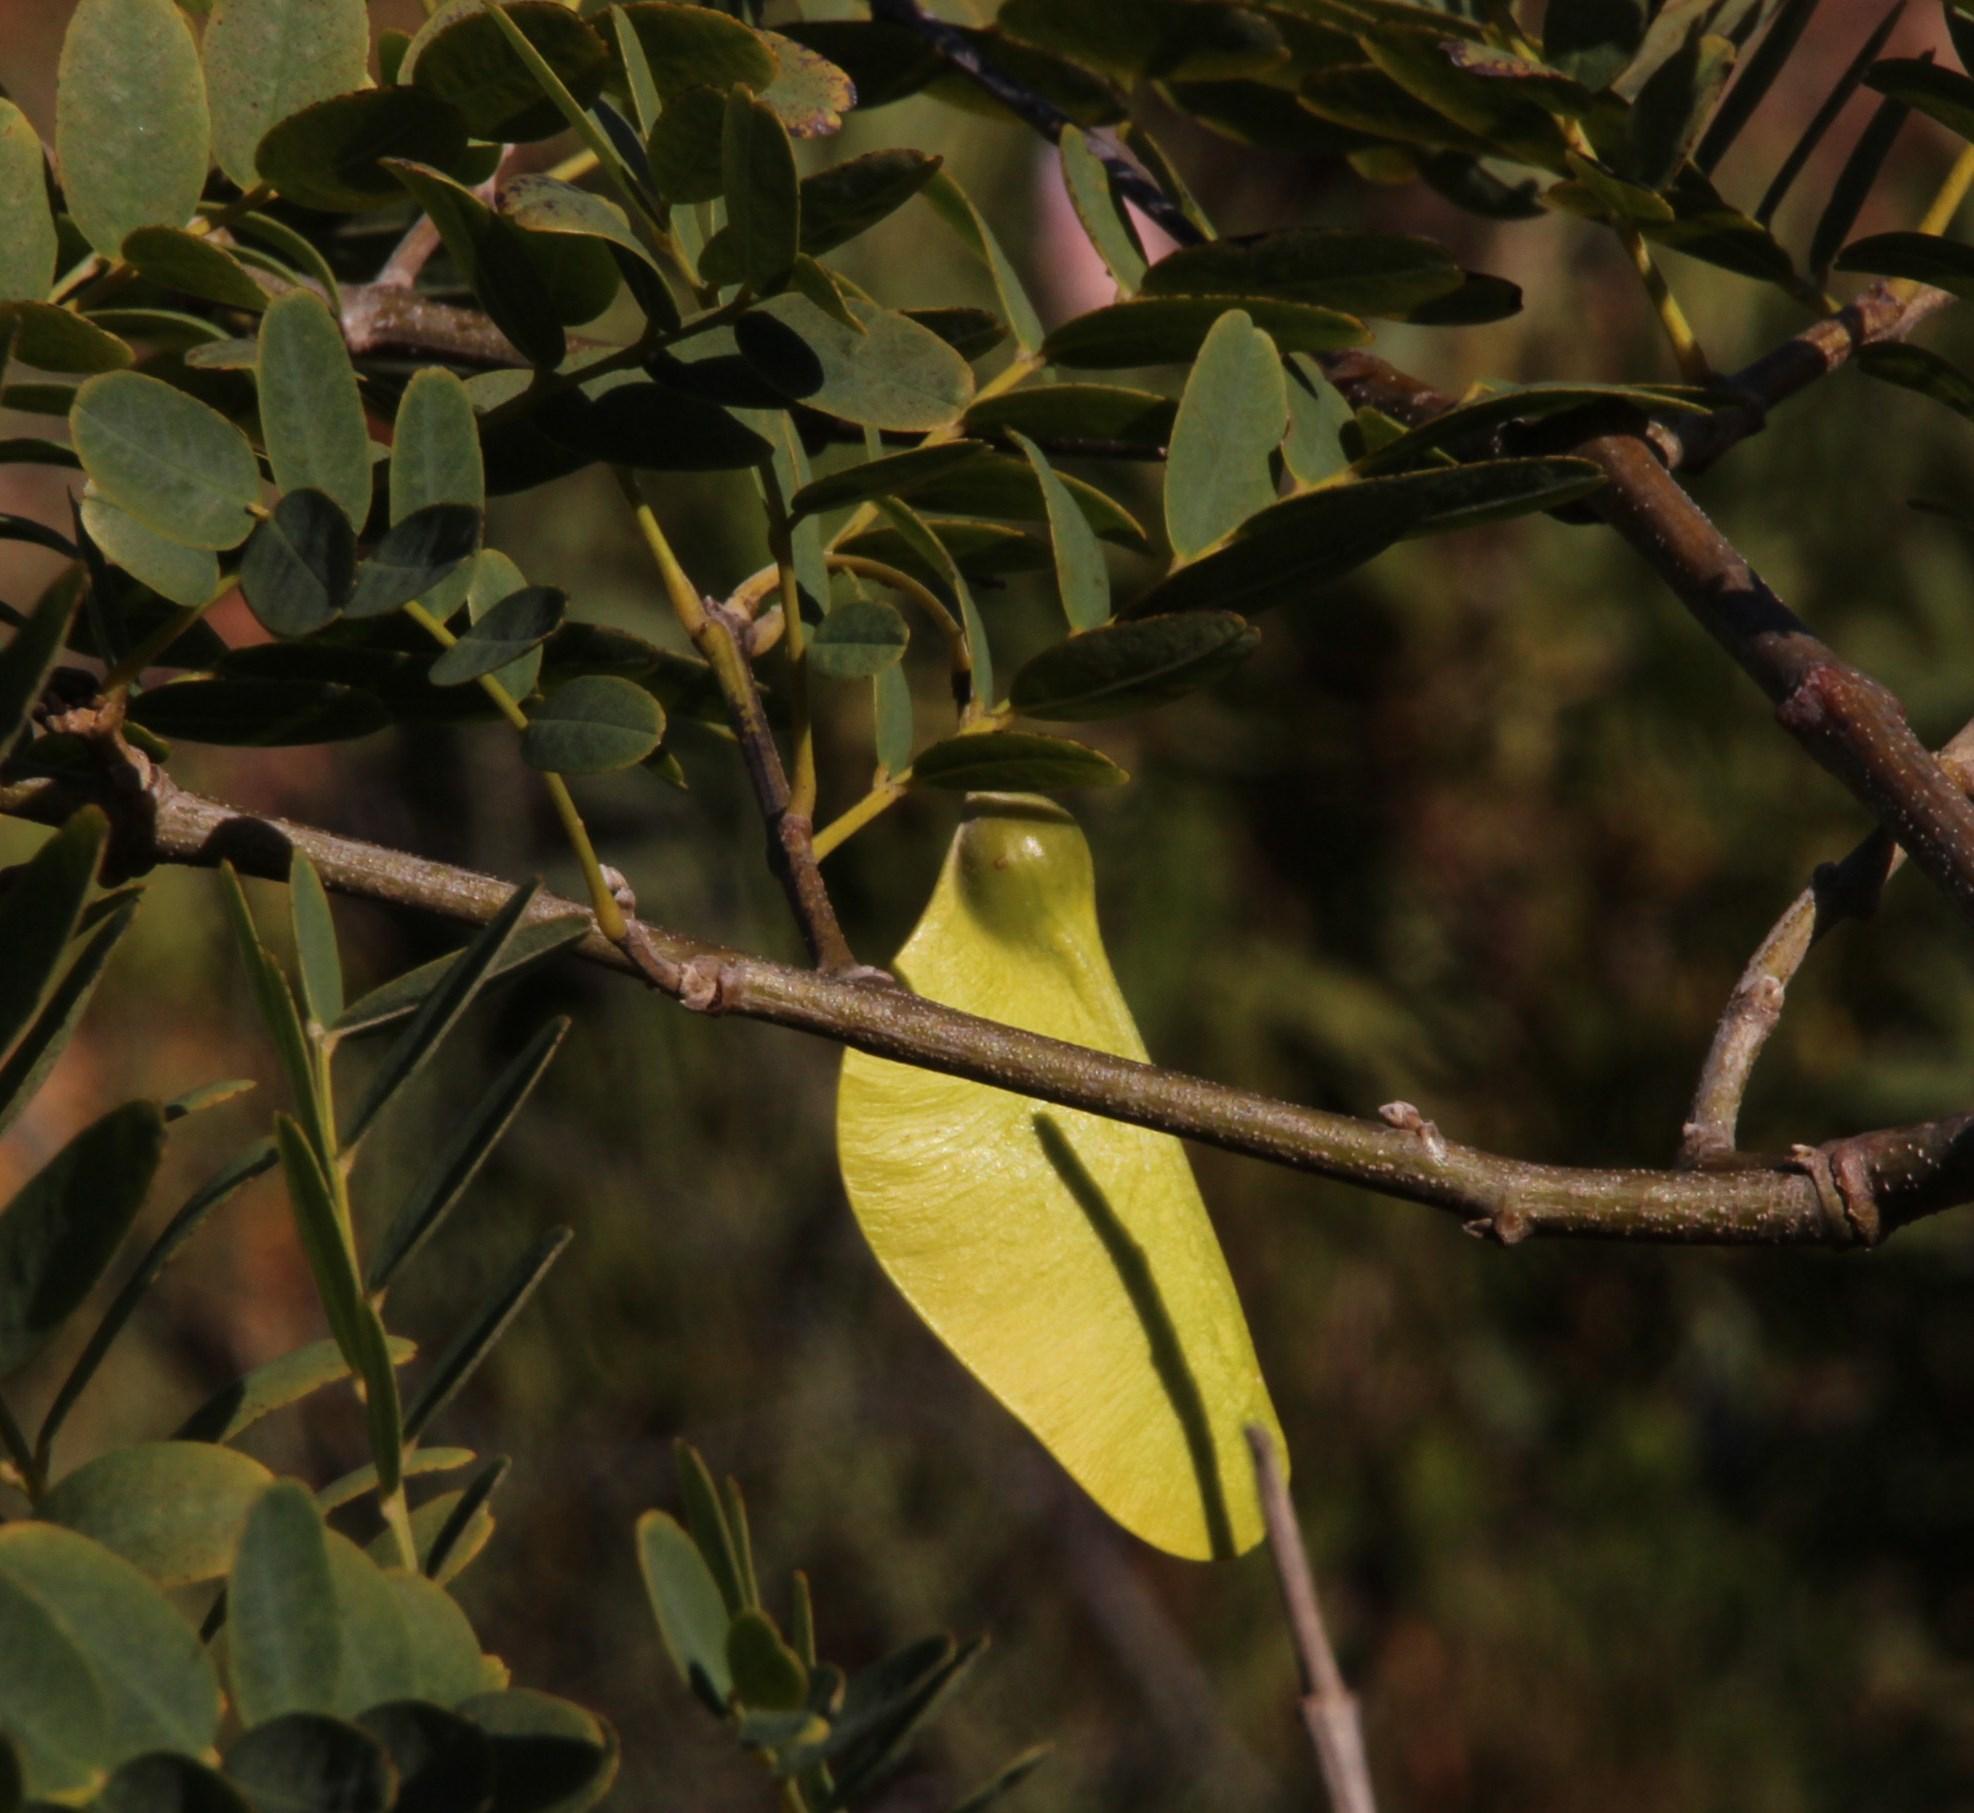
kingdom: Plantae
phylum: Tracheophyta
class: Magnoliopsida
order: Fabales
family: Fabaceae
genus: Tipuana
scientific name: Tipuana tipu
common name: Tiputree
